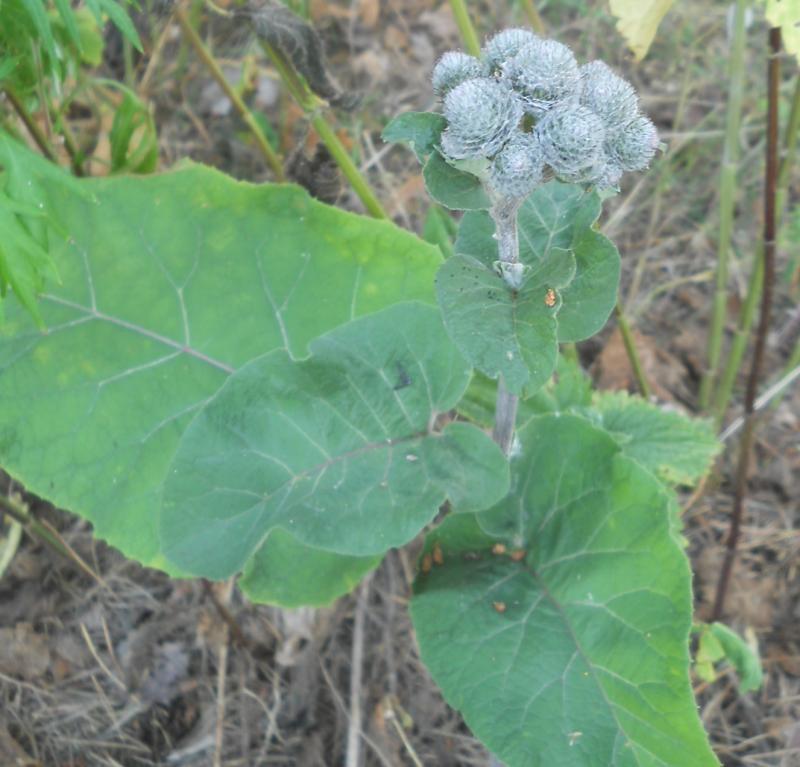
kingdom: Plantae
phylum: Tracheophyta
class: Magnoliopsida
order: Asterales
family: Asteraceae
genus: Arctium
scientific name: Arctium tomentosum
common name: Woolly burdock
